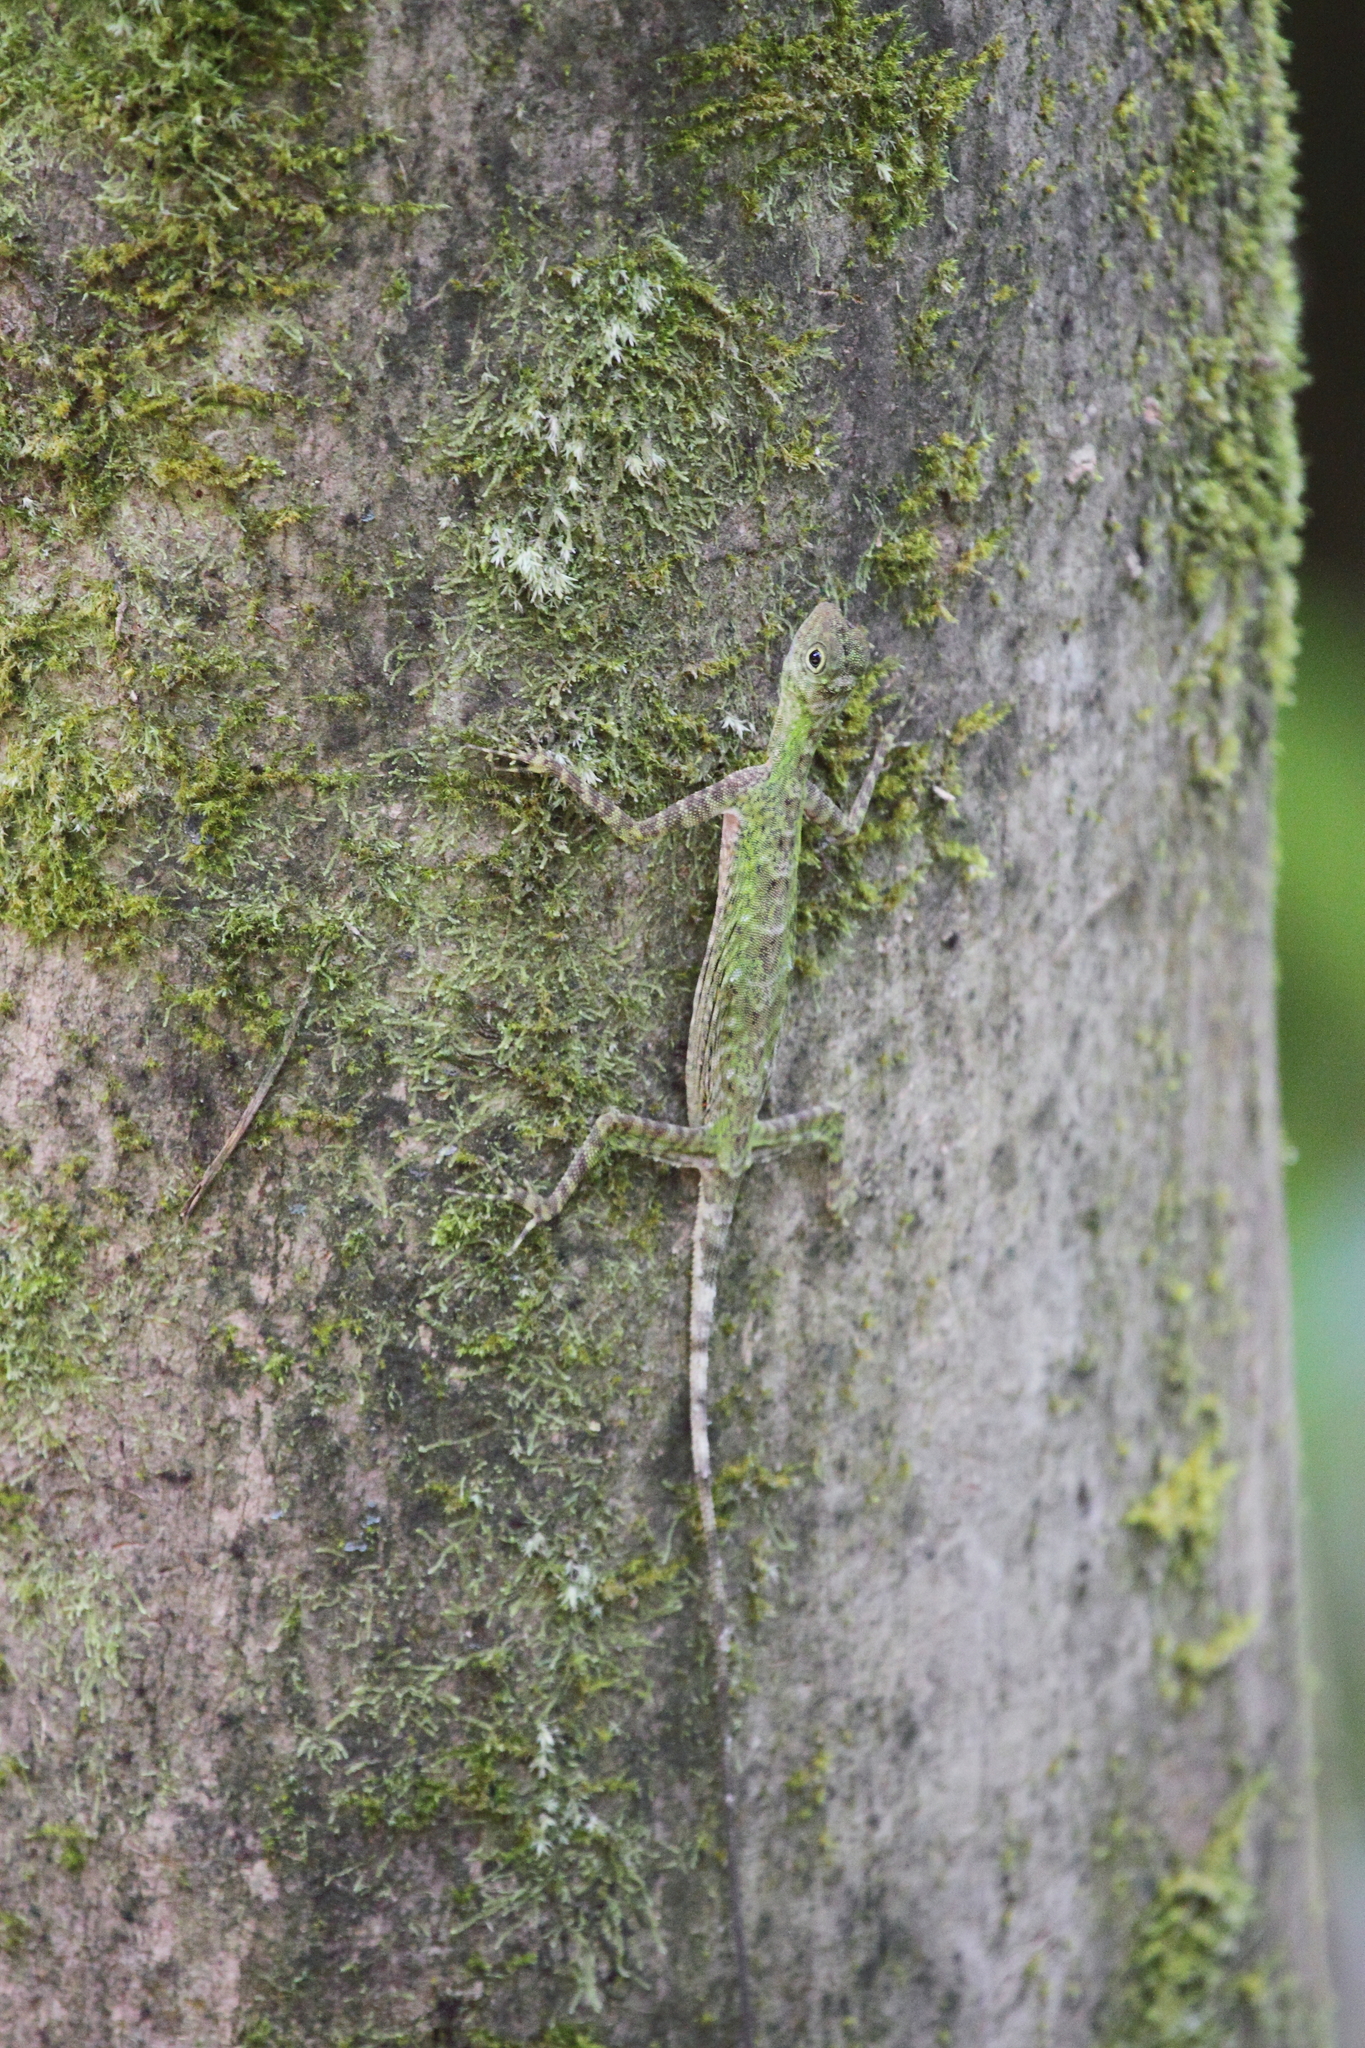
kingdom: Animalia
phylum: Chordata
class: Squamata
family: Agamidae
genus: Draco
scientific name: Draco melanopogon
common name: Black-barbed flying dragon
